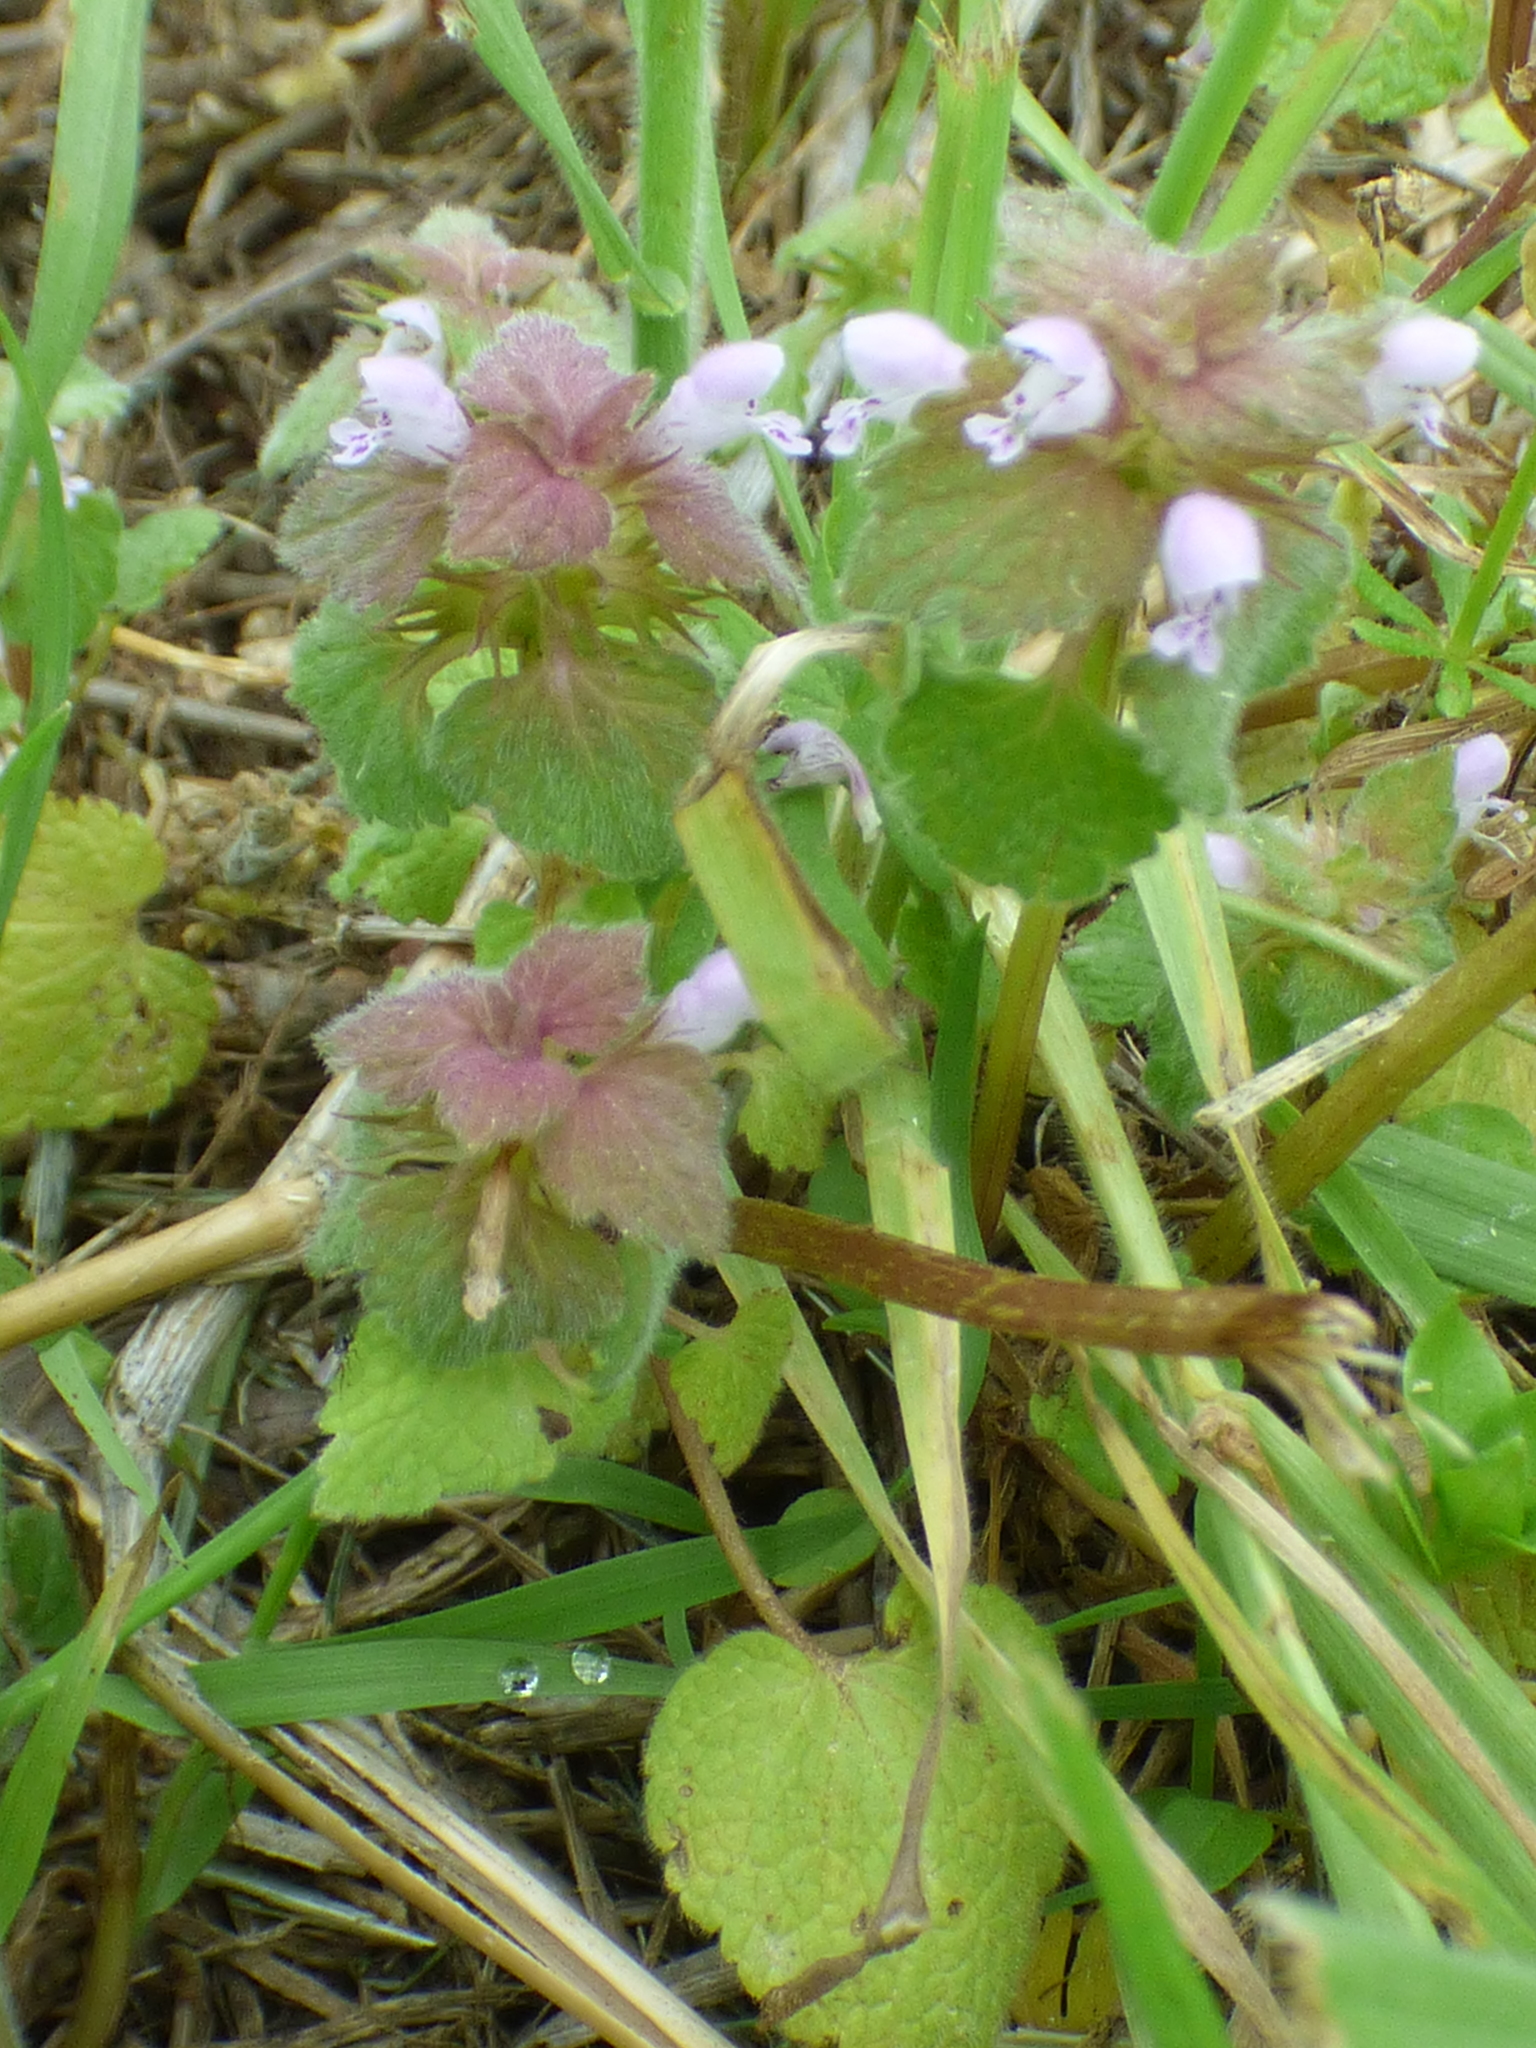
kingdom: Plantae
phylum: Tracheophyta
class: Magnoliopsida
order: Lamiales
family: Lamiaceae
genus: Lamium
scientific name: Lamium purpureum
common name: Red dead-nettle
